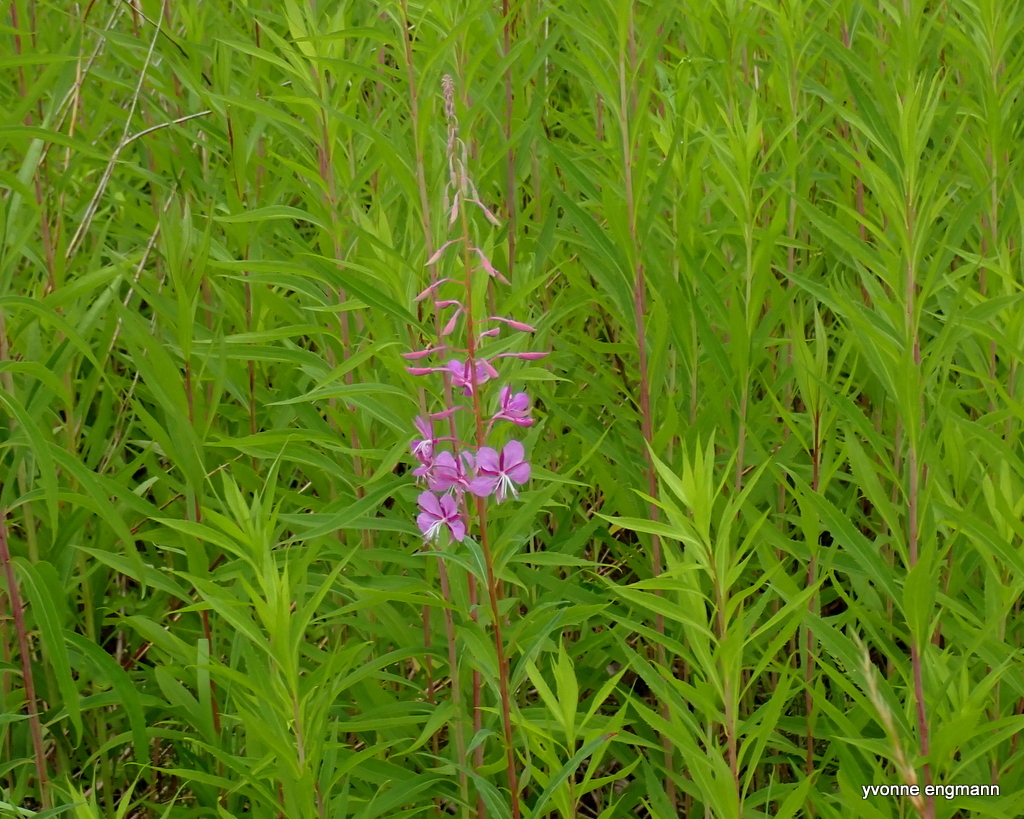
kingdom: Plantae
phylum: Tracheophyta
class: Magnoliopsida
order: Myrtales
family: Onagraceae
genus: Chamaenerion
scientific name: Chamaenerion angustifolium
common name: Fireweed
